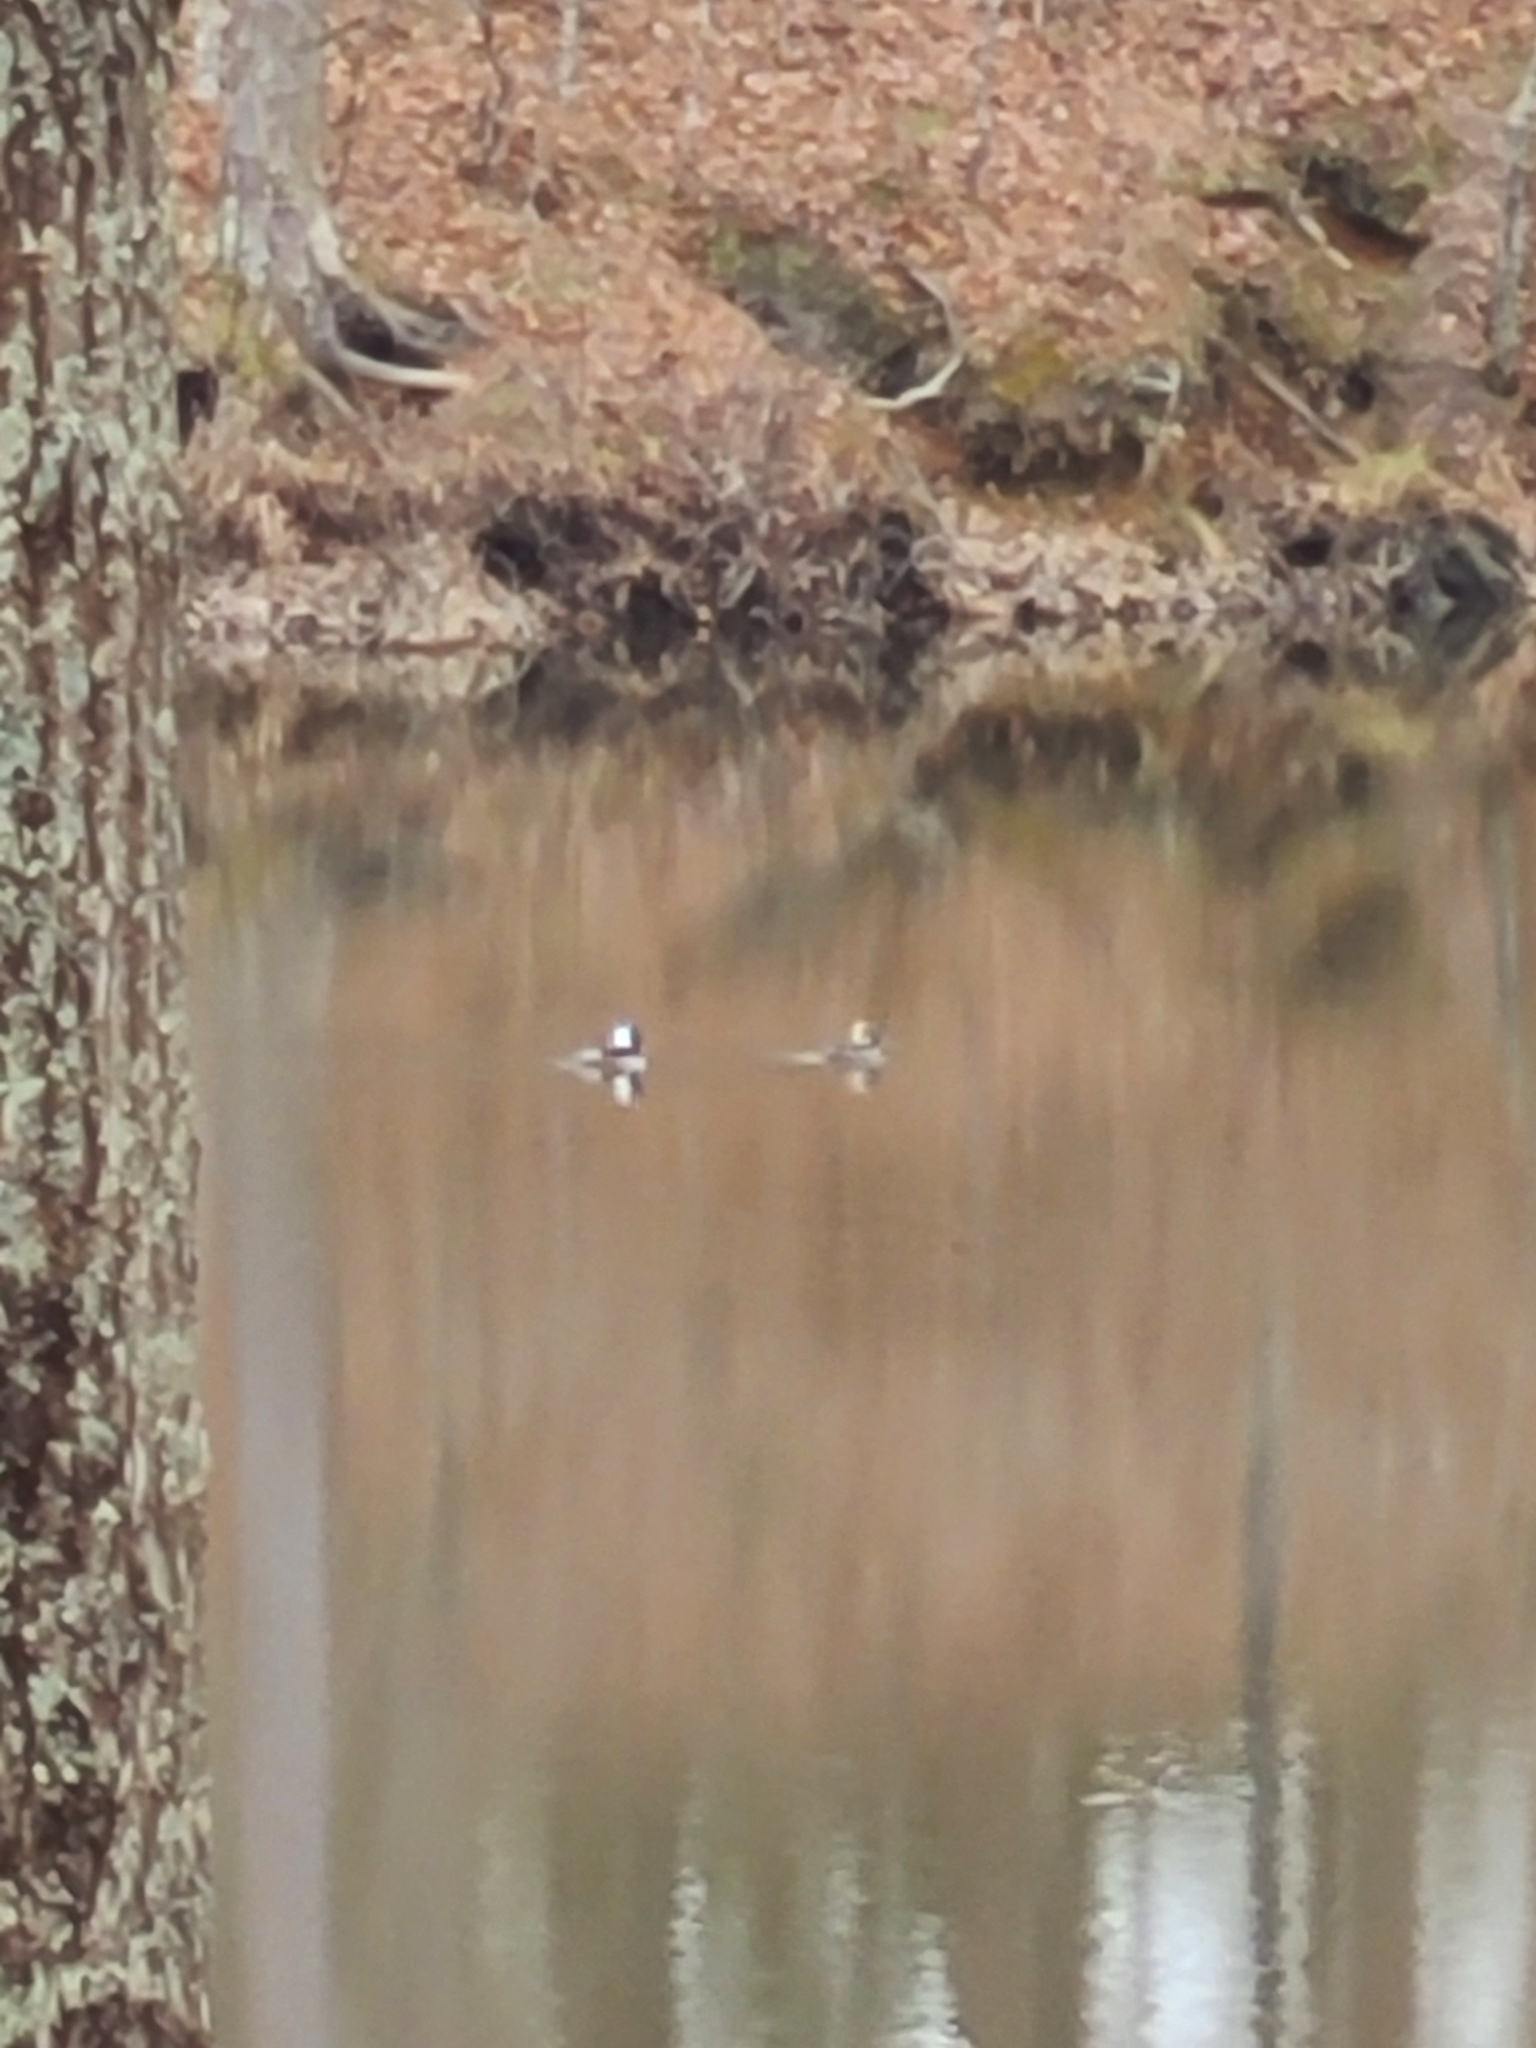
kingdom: Animalia
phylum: Chordata
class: Aves
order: Anseriformes
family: Anatidae
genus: Lophodytes
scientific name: Lophodytes cucullatus
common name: Hooded merganser
